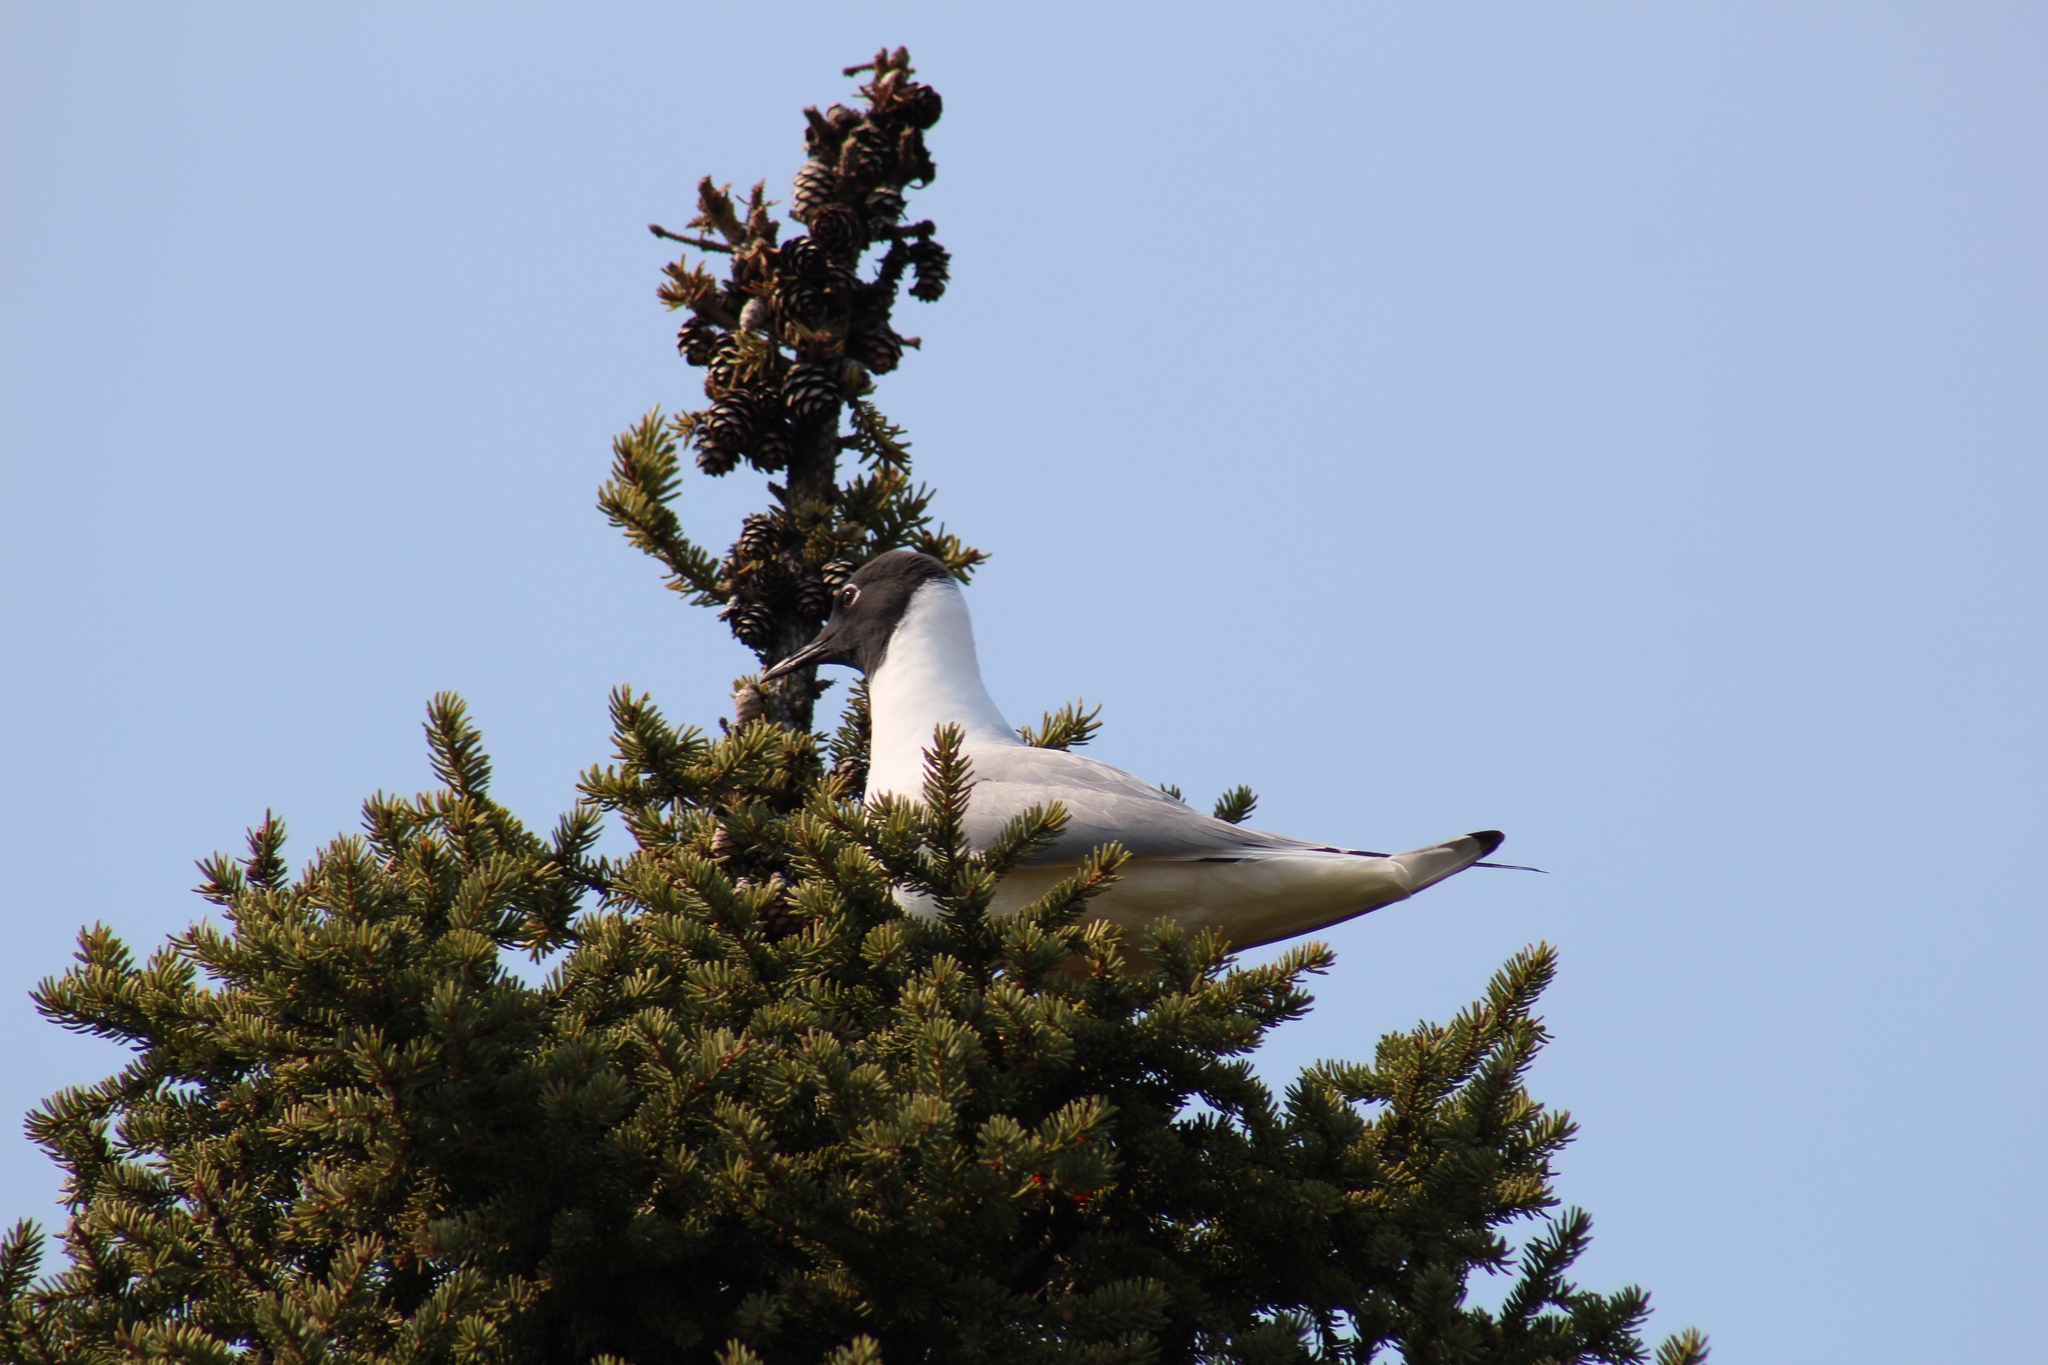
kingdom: Animalia
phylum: Chordata
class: Aves
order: Charadriiformes
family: Laridae
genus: Chroicocephalus
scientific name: Chroicocephalus philadelphia
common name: Bonaparte's gull
